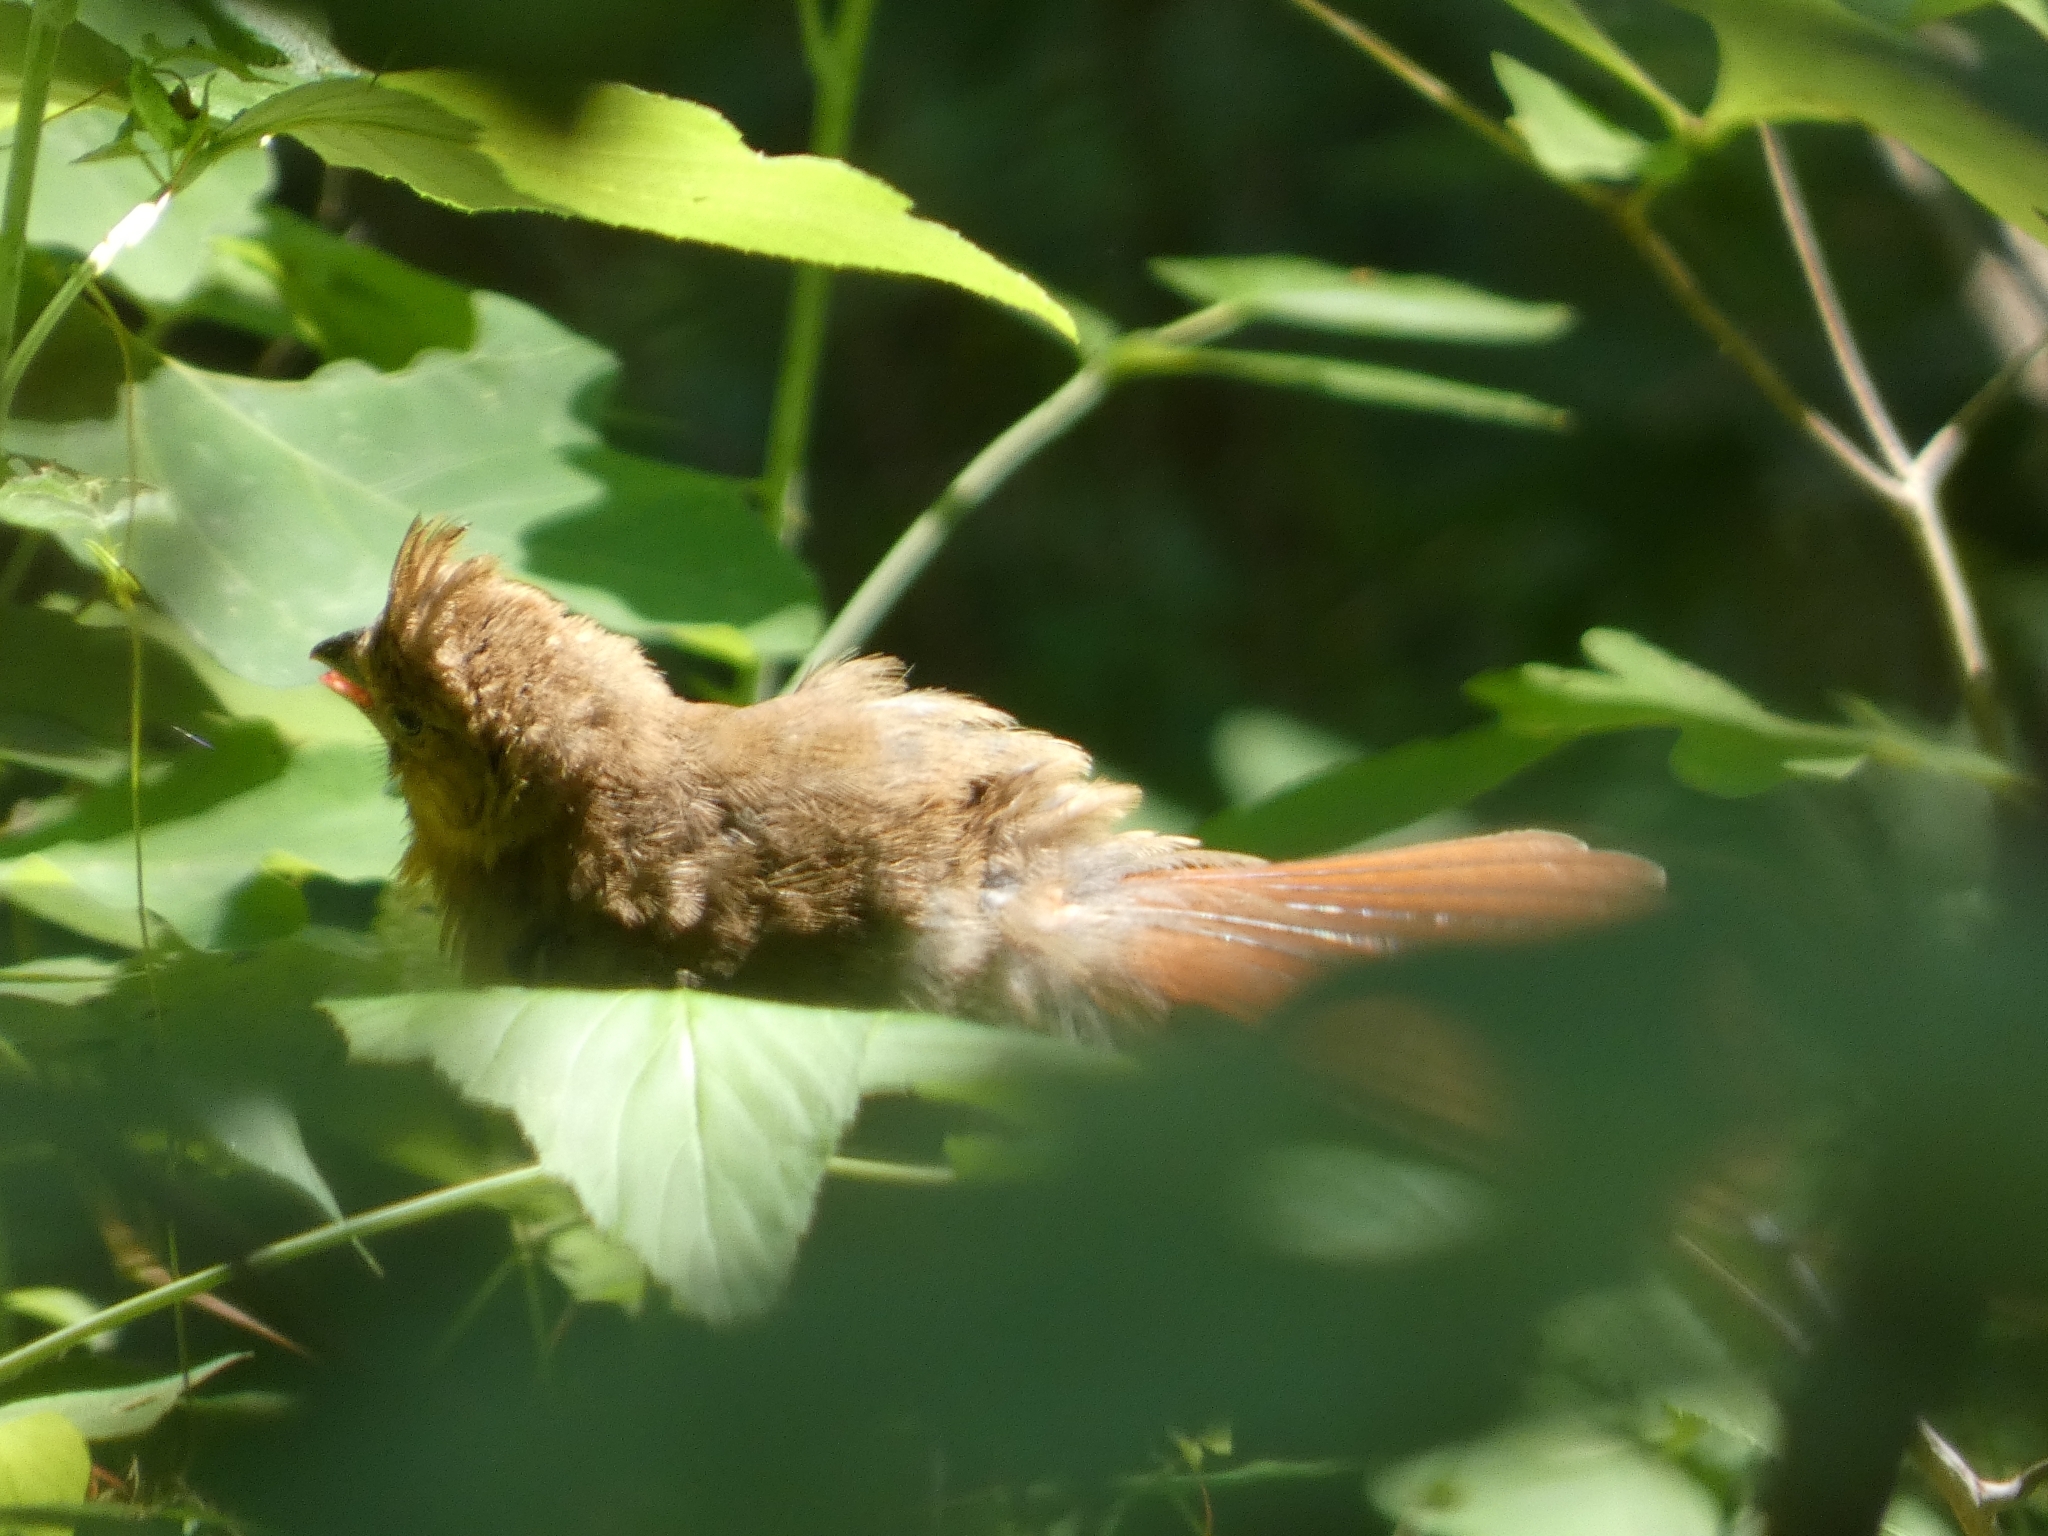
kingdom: Animalia
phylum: Chordata
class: Aves
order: Passeriformes
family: Cardinalidae
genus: Cardinalis
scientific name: Cardinalis cardinalis
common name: Northern cardinal
